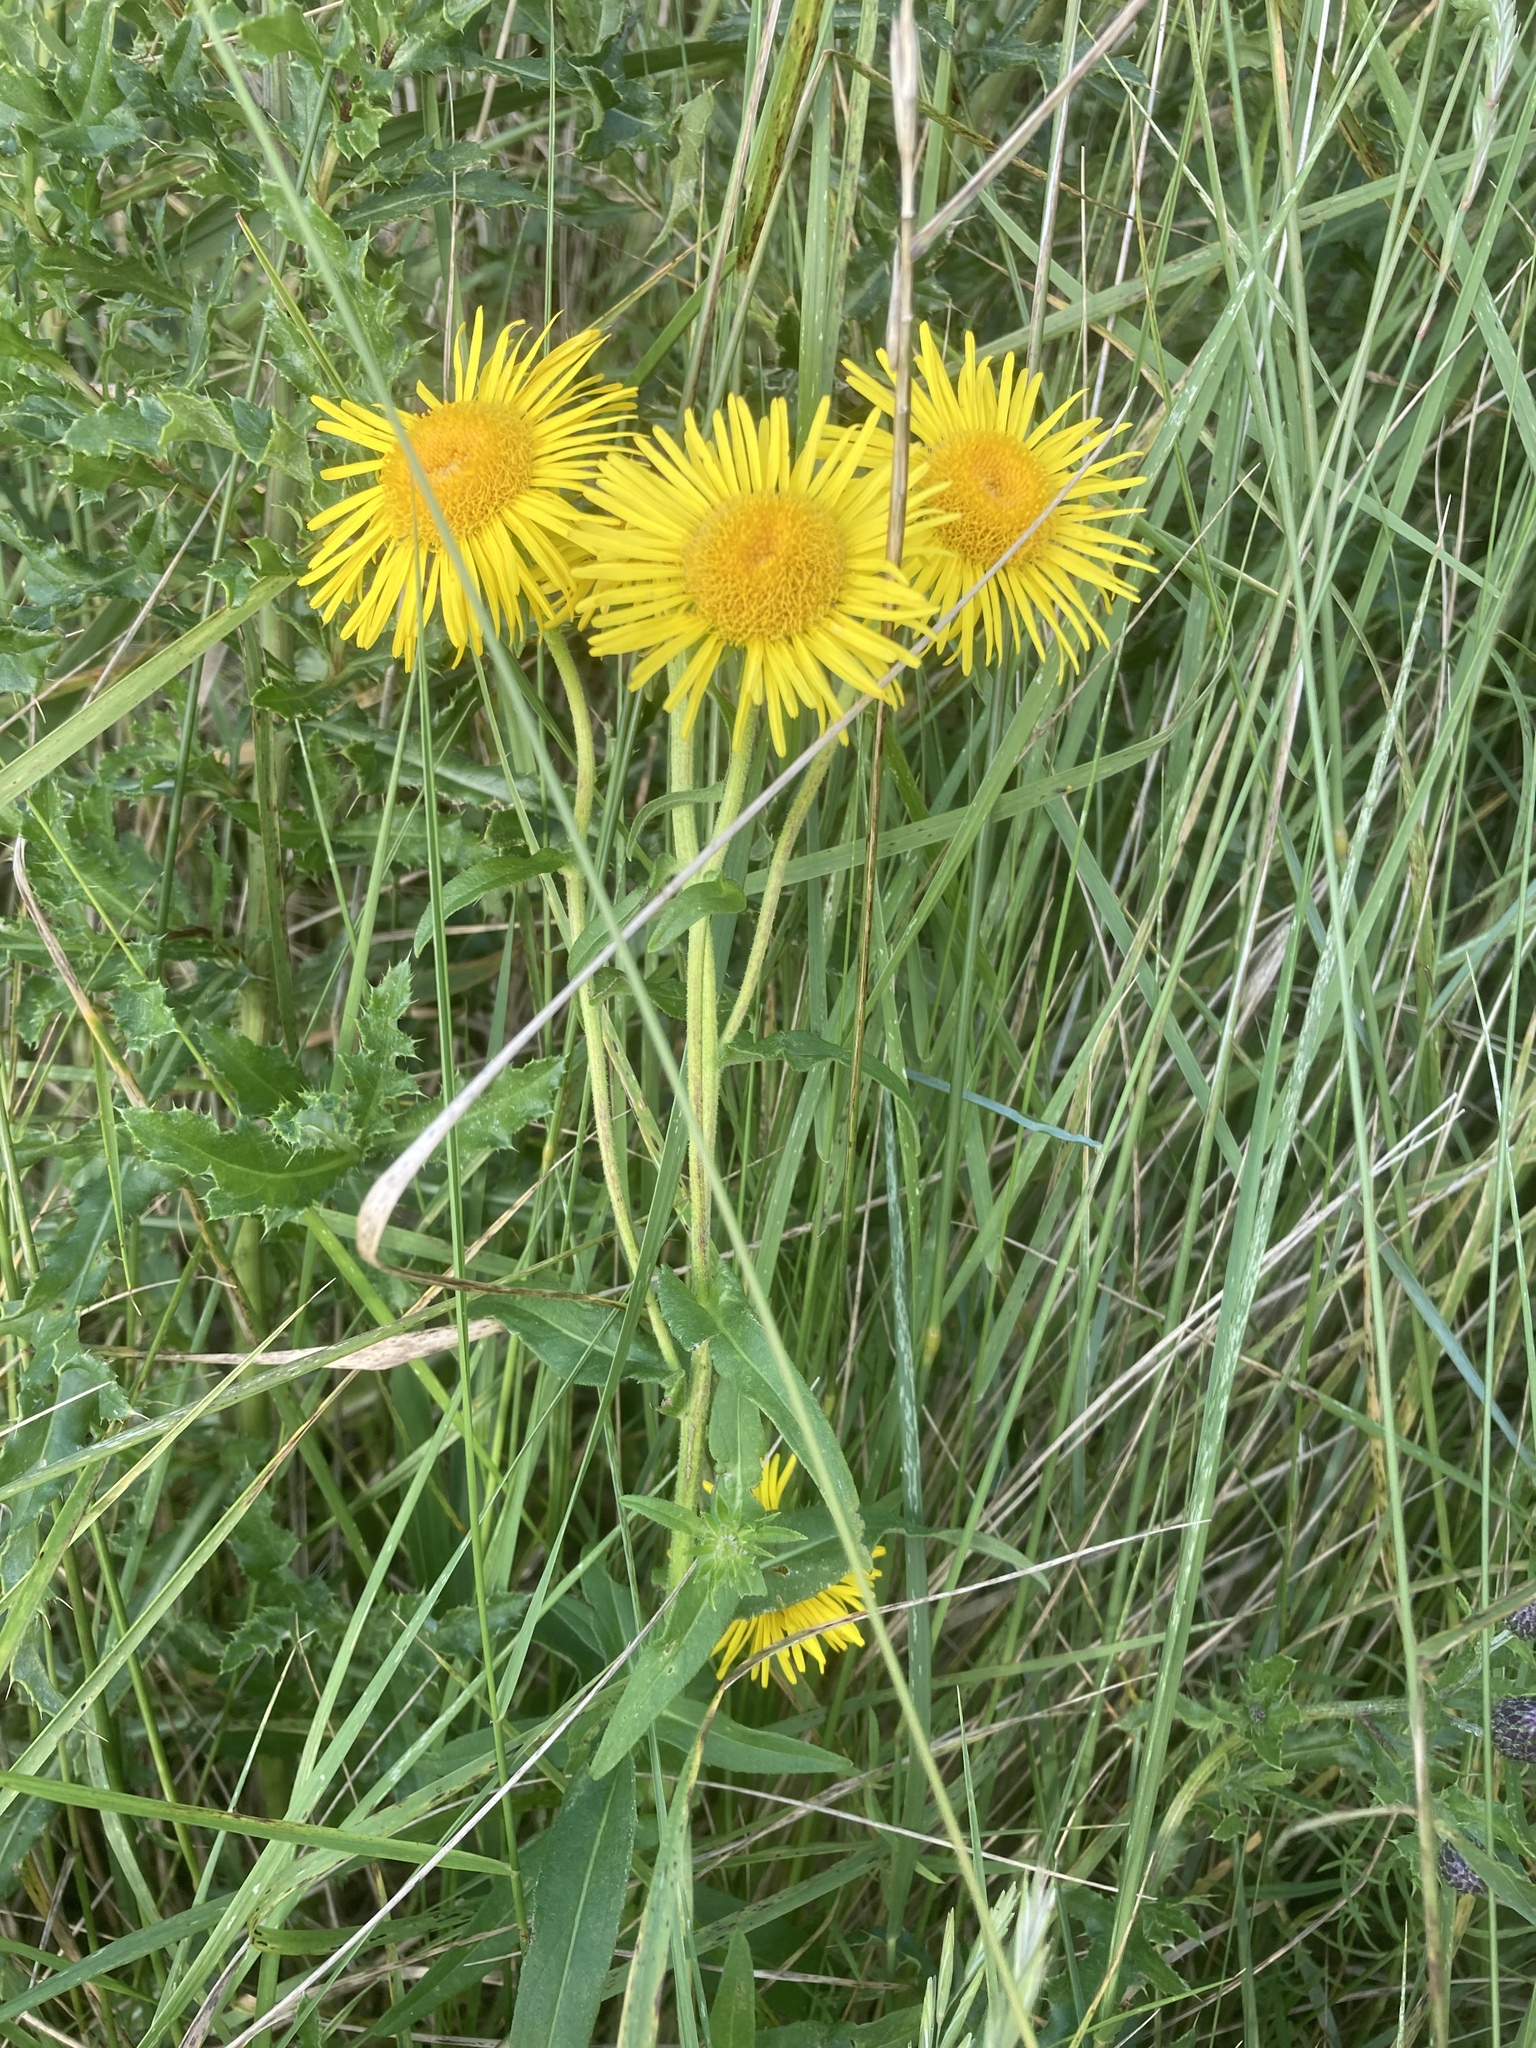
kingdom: Plantae
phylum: Tracheophyta
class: Magnoliopsida
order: Asterales
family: Asteraceae
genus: Pentanema
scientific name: Pentanema britannicum
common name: British elecampane
